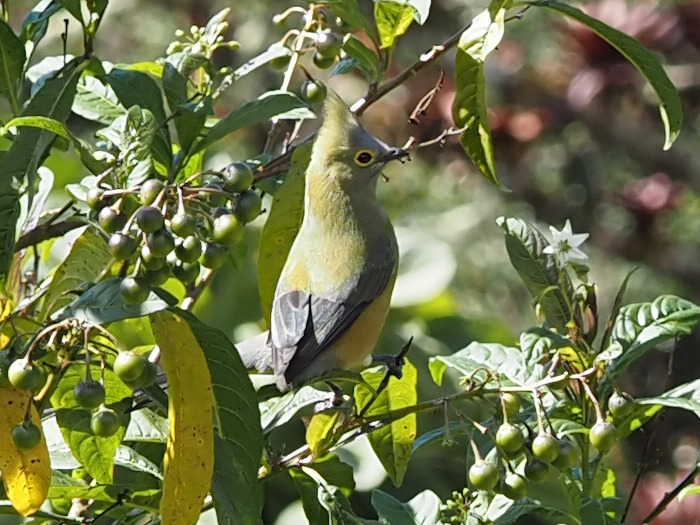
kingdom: Animalia
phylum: Chordata
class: Aves
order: Passeriformes
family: Ptilogonatidae
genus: Ptilogonys
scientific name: Ptilogonys caudatus
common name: Long-tailed silky-flycatcher
